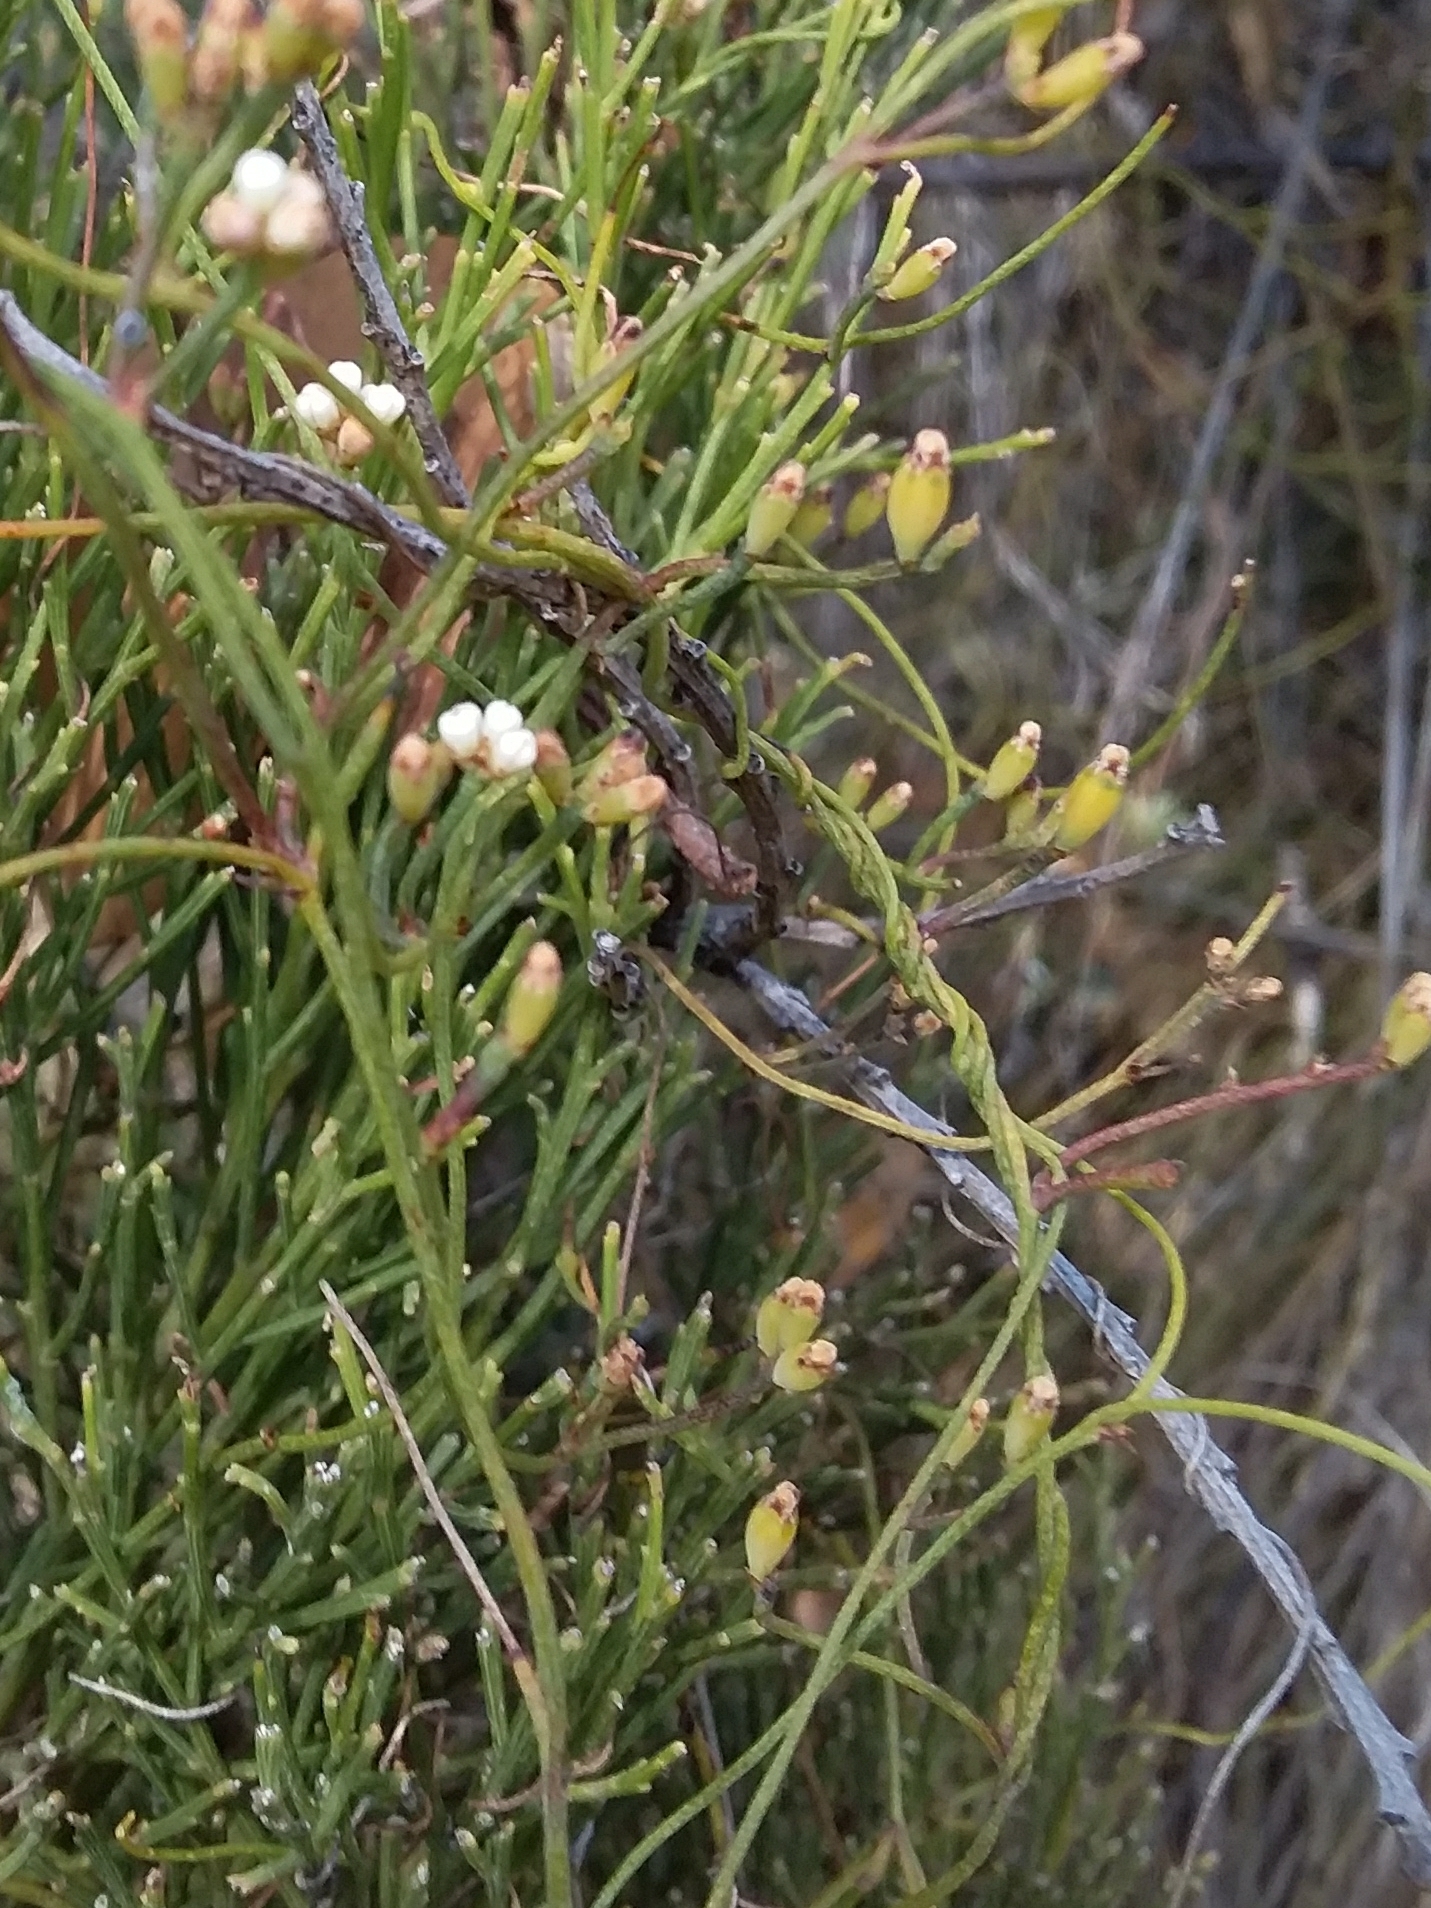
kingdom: Plantae
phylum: Tracheophyta
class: Magnoliopsida
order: Laurales
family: Lauraceae
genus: Cassytha
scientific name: Cassytha glabella
